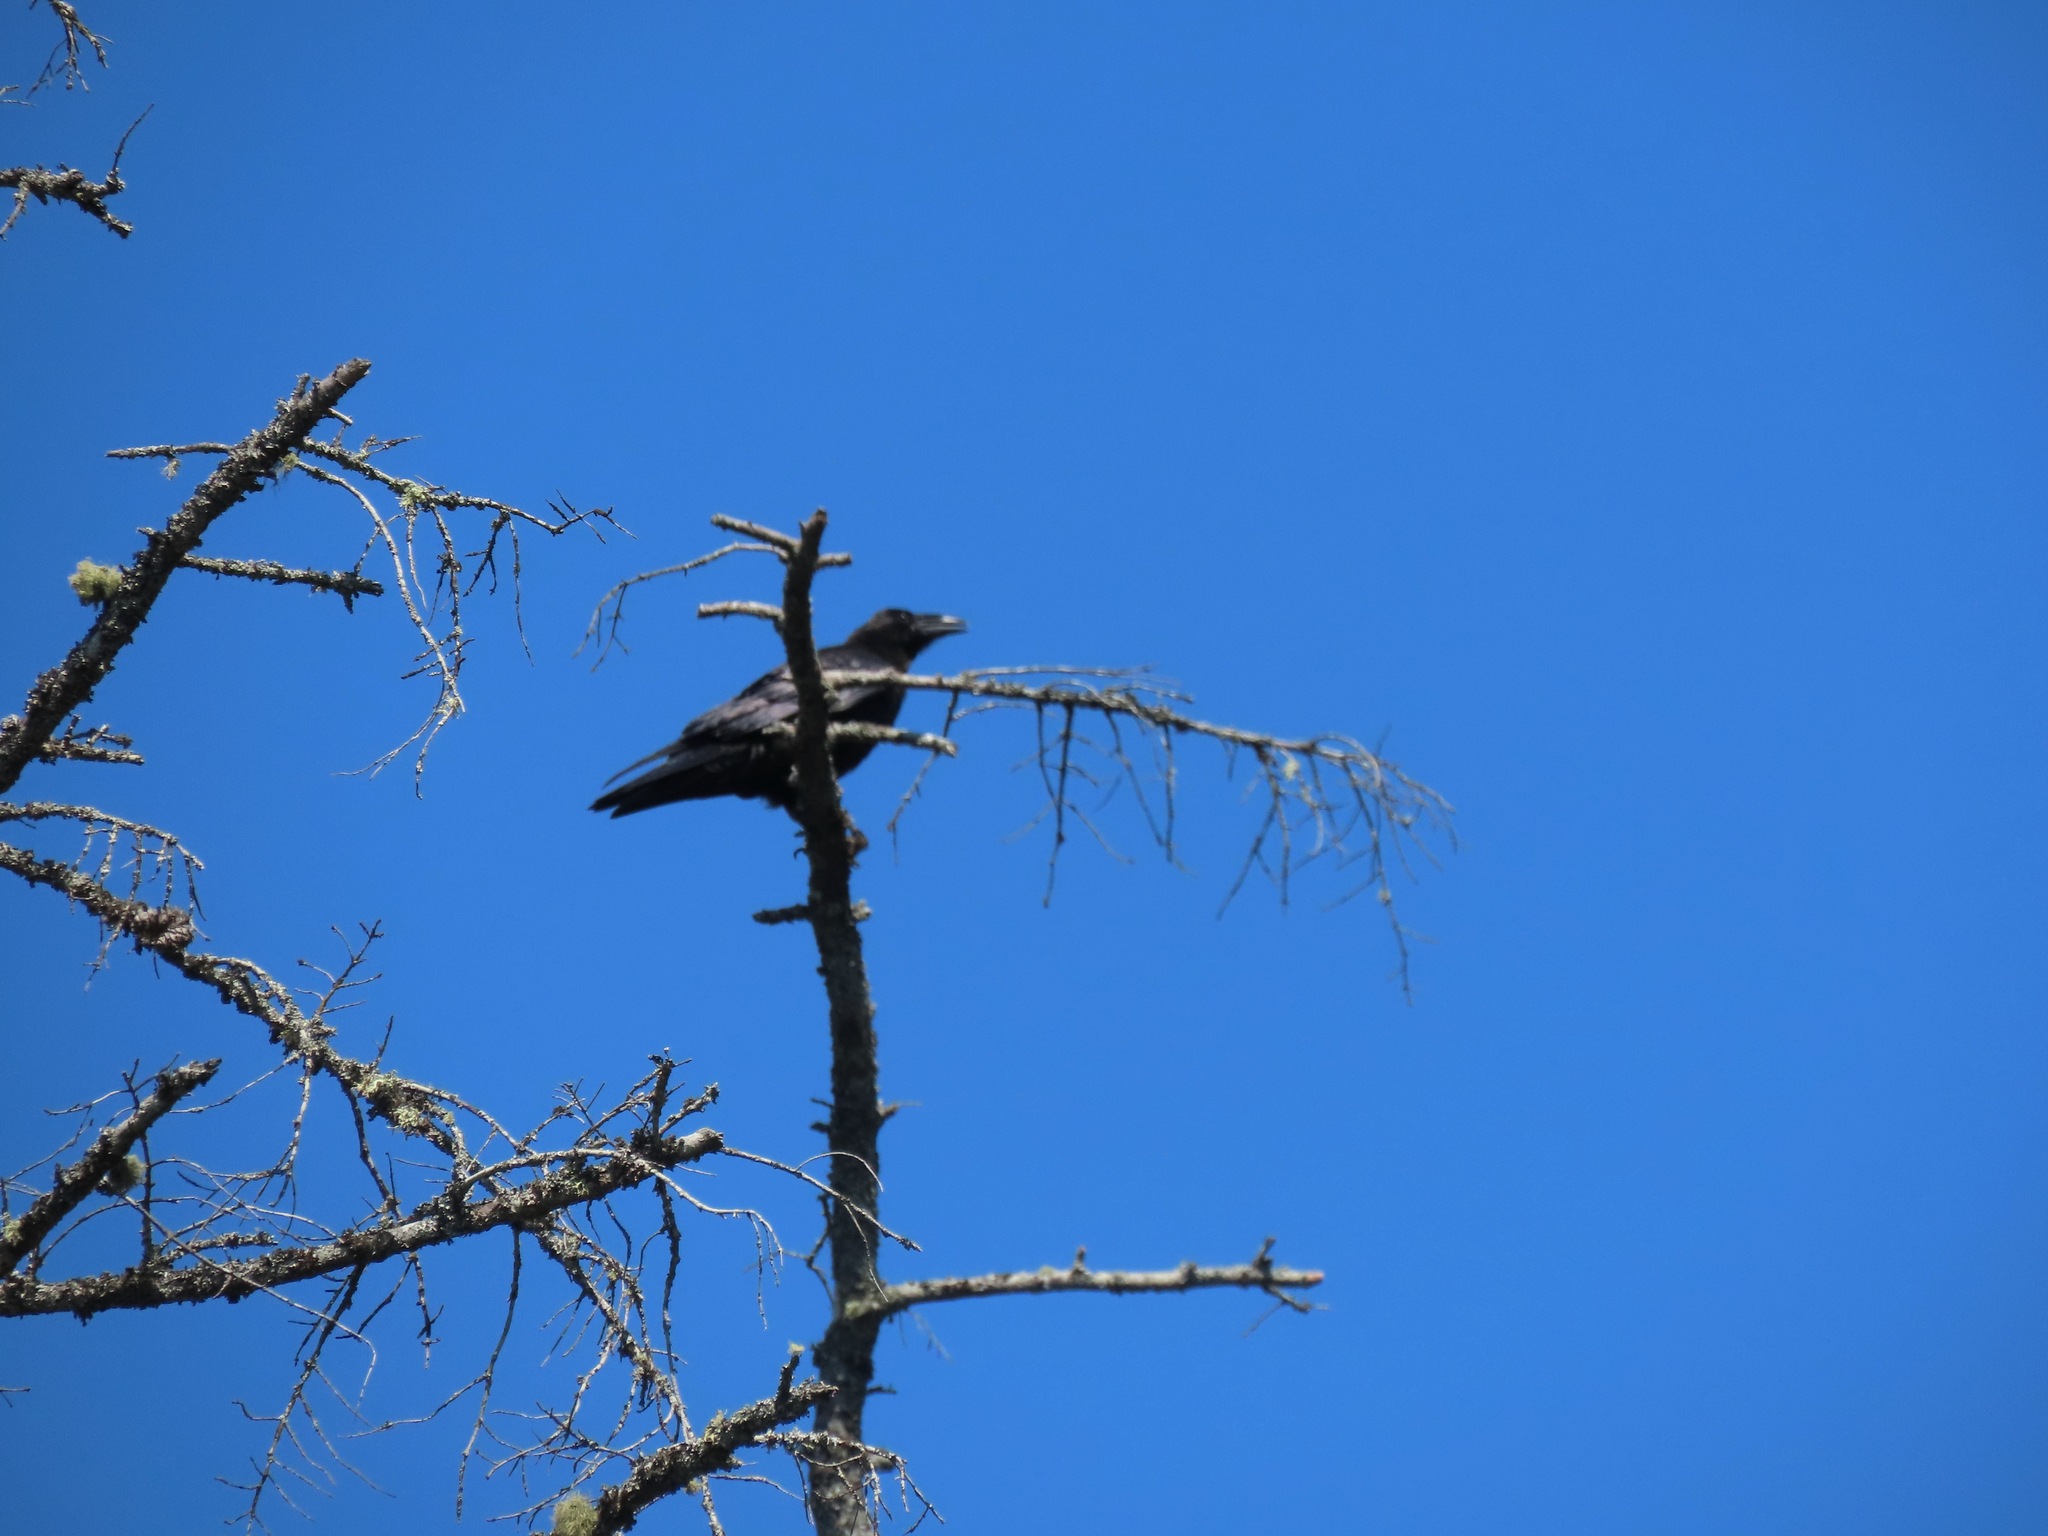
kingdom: Animalia
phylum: Chordata
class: Aves
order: Passeriformes
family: Corvidae
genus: Corvus
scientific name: Corvus corax
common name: Common raven
